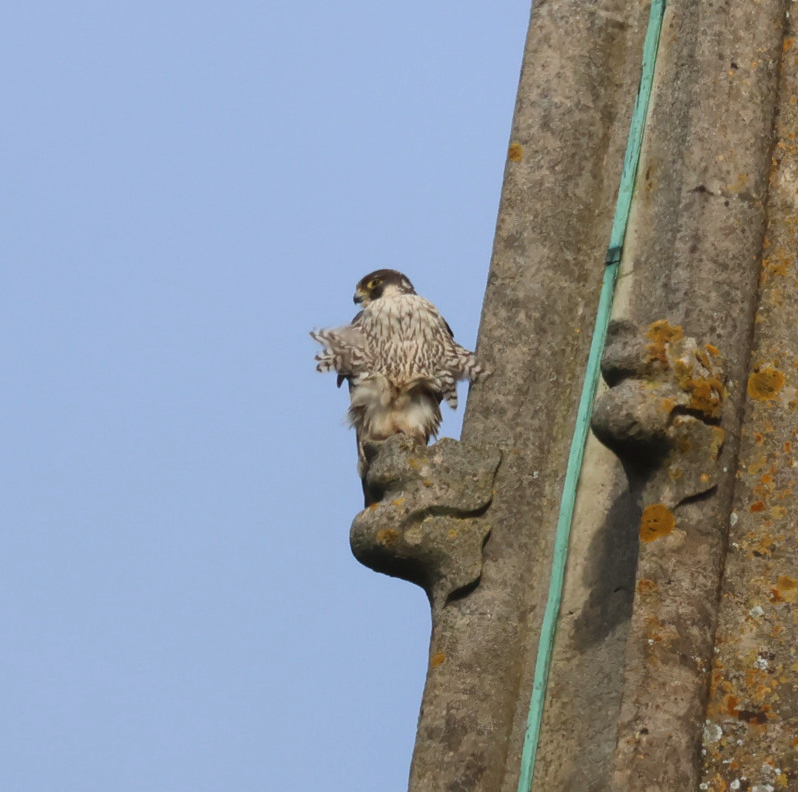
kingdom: Animalia
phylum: Chordata
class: Aves
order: Falconiformes
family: Falconidae
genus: Falco
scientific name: Falco peregrinus
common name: Peregrine falcon
